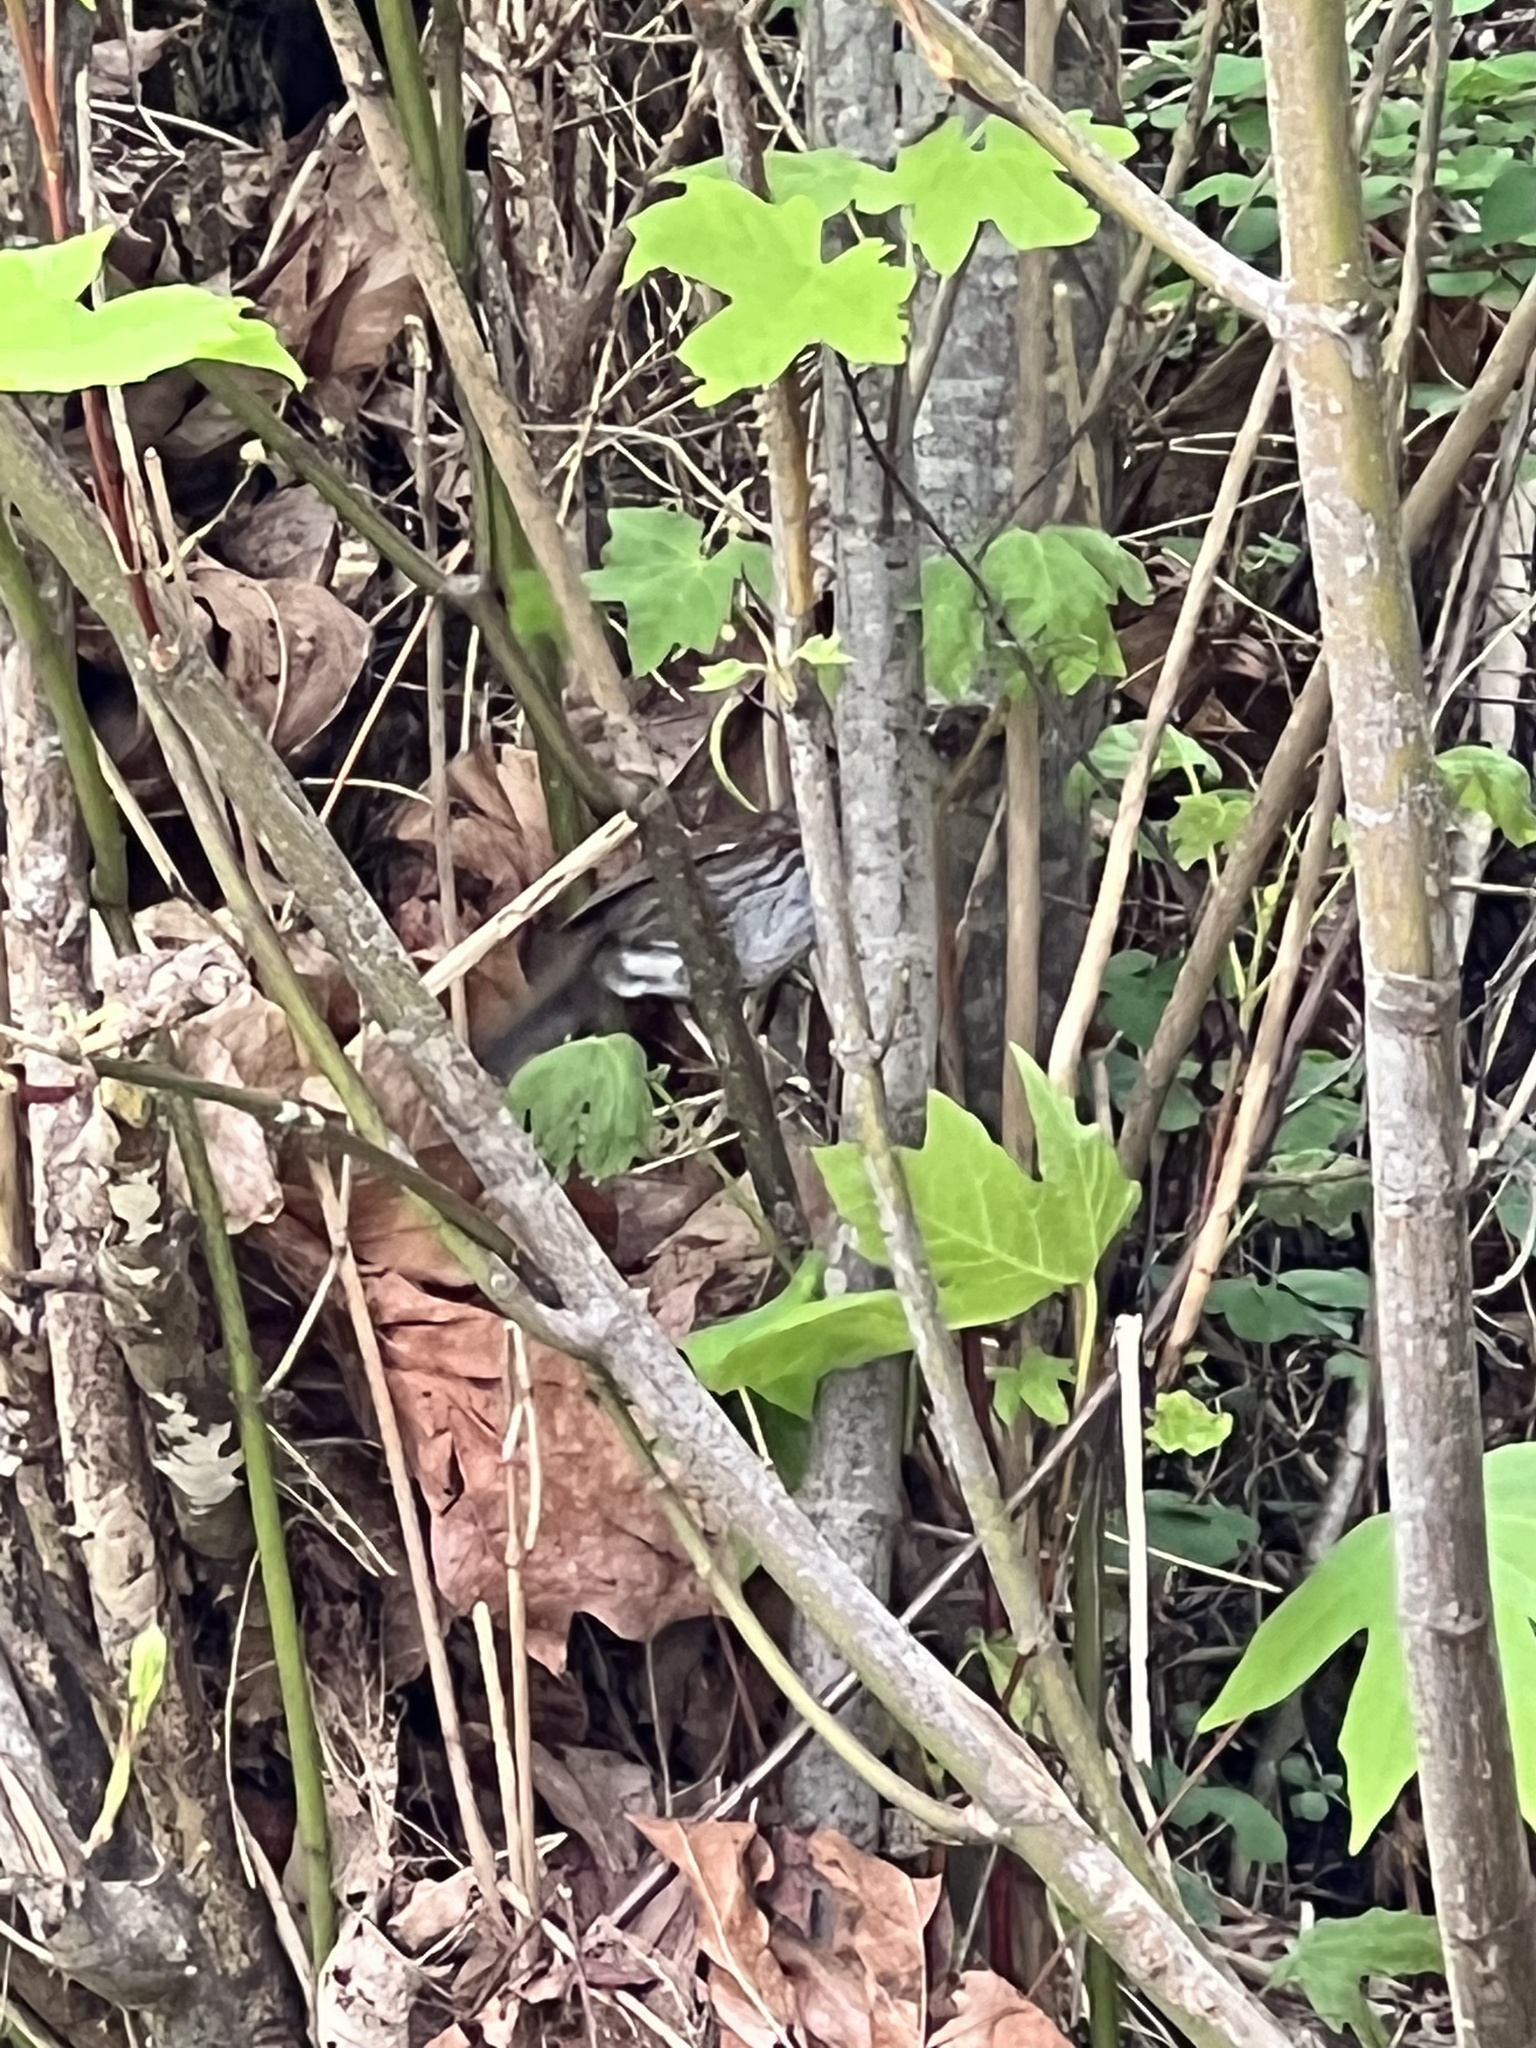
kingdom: Animalia
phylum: Chordata
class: Aves
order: Passeriformes
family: Passerellidae
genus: Melospiza
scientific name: Melospiza melodia
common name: Song sparrow
